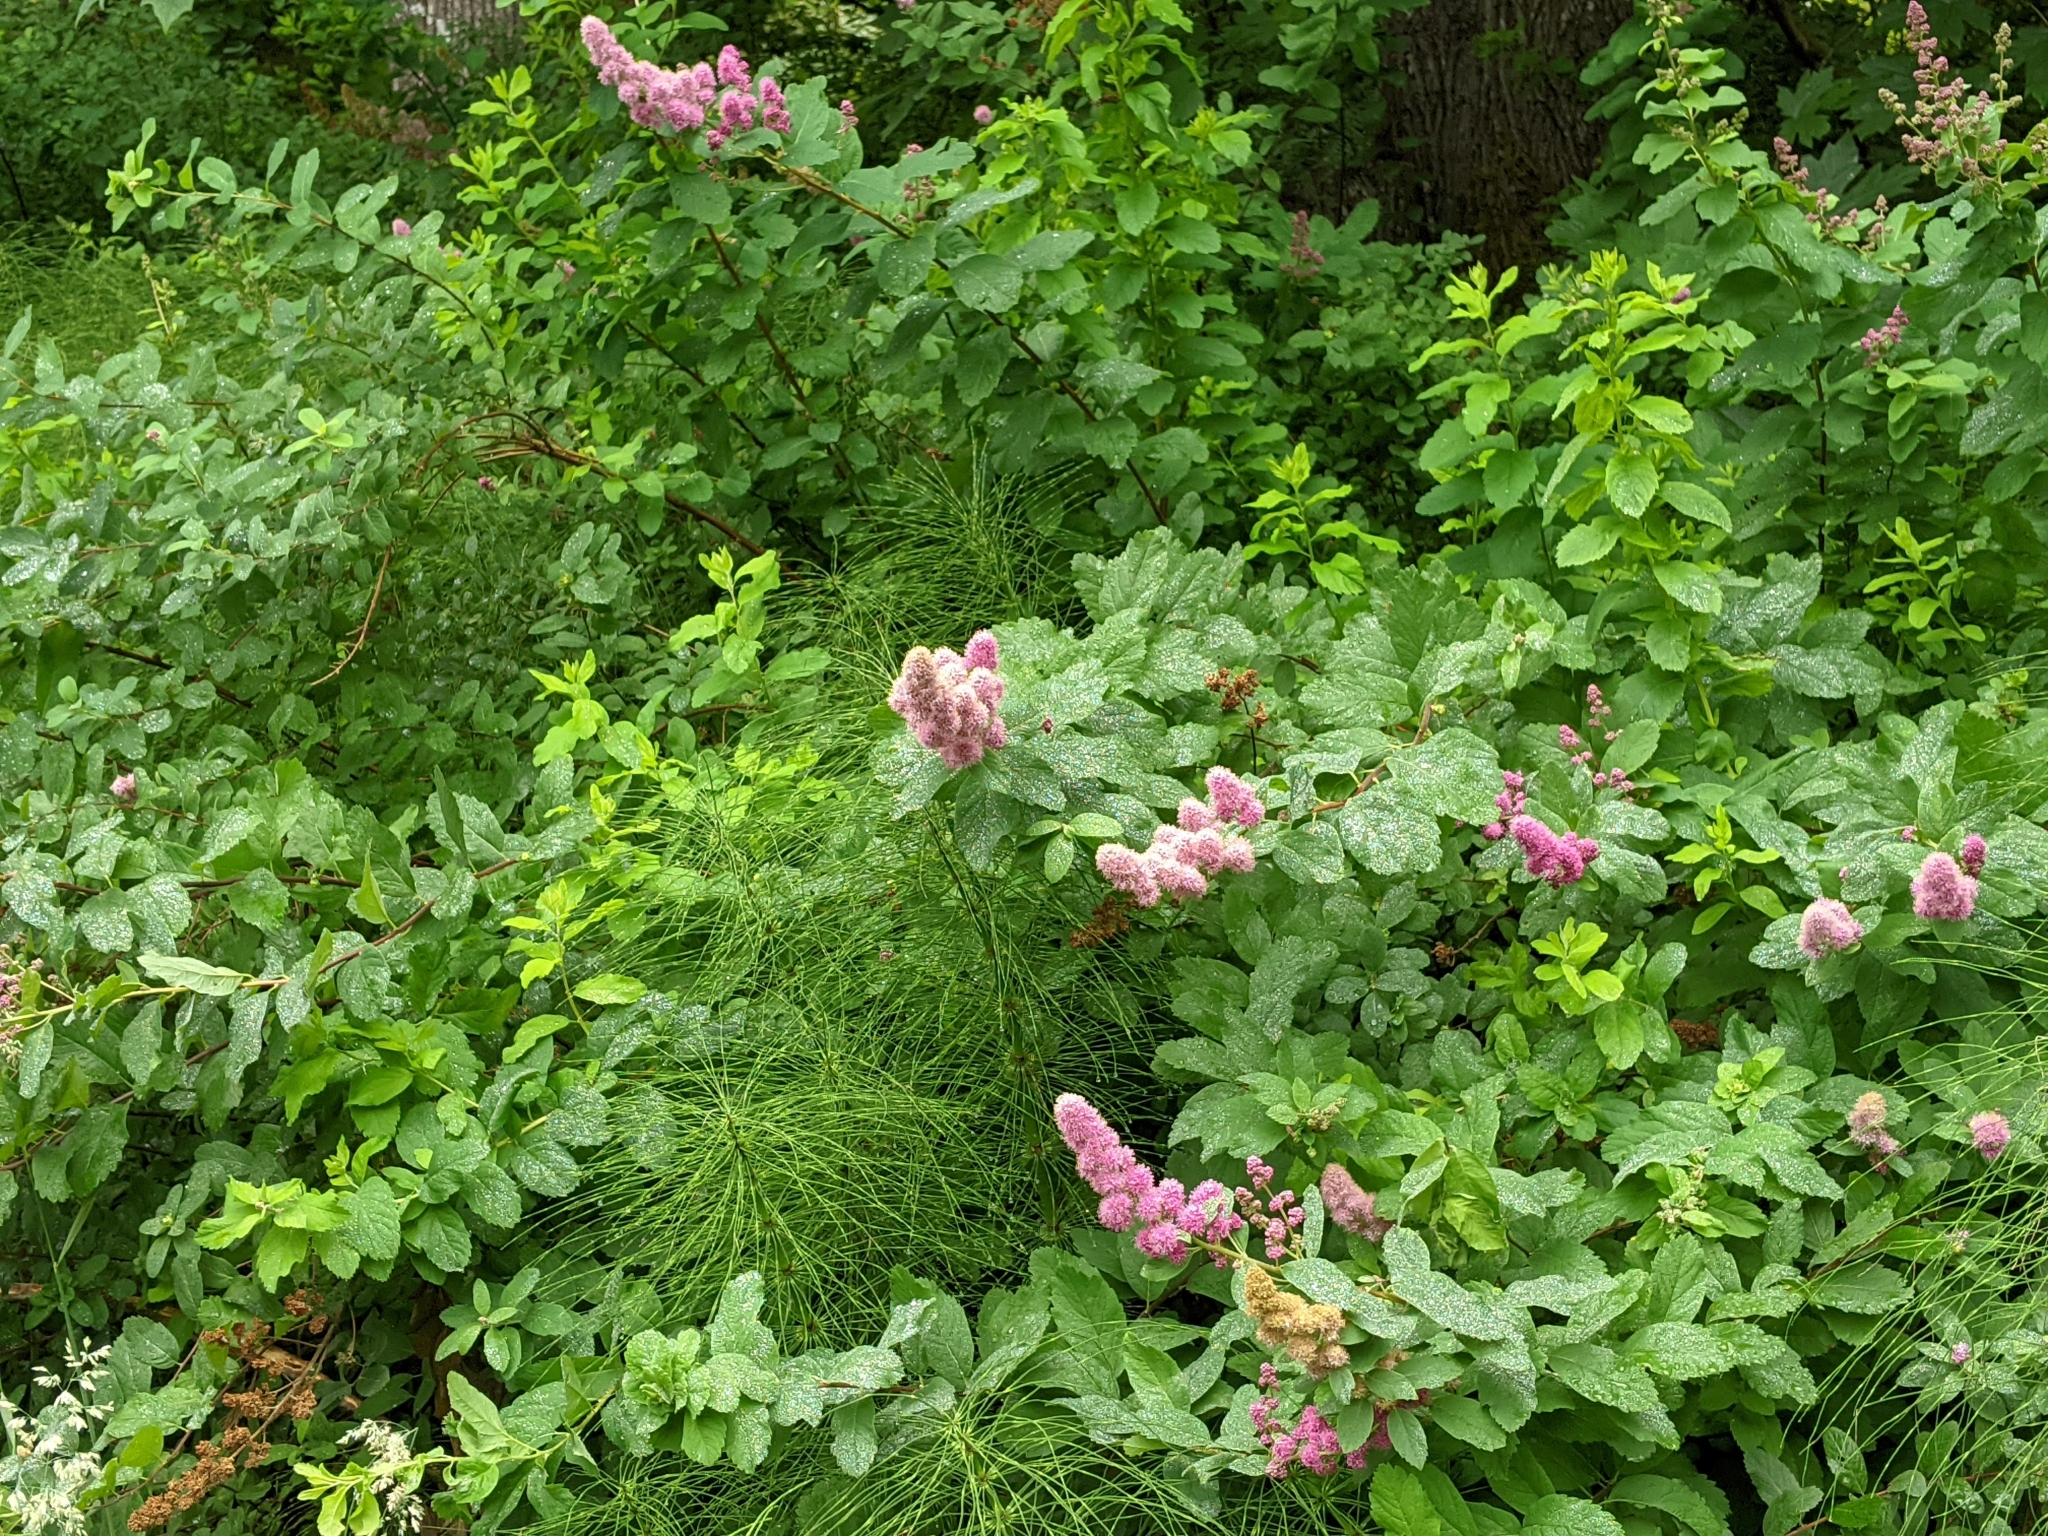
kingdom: Plantae
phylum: Tracheophyta
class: Magnoliopsida
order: Rosales
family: Rosaceae
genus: Spiraea
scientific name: Spiraea douglasii
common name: Steeplebush
